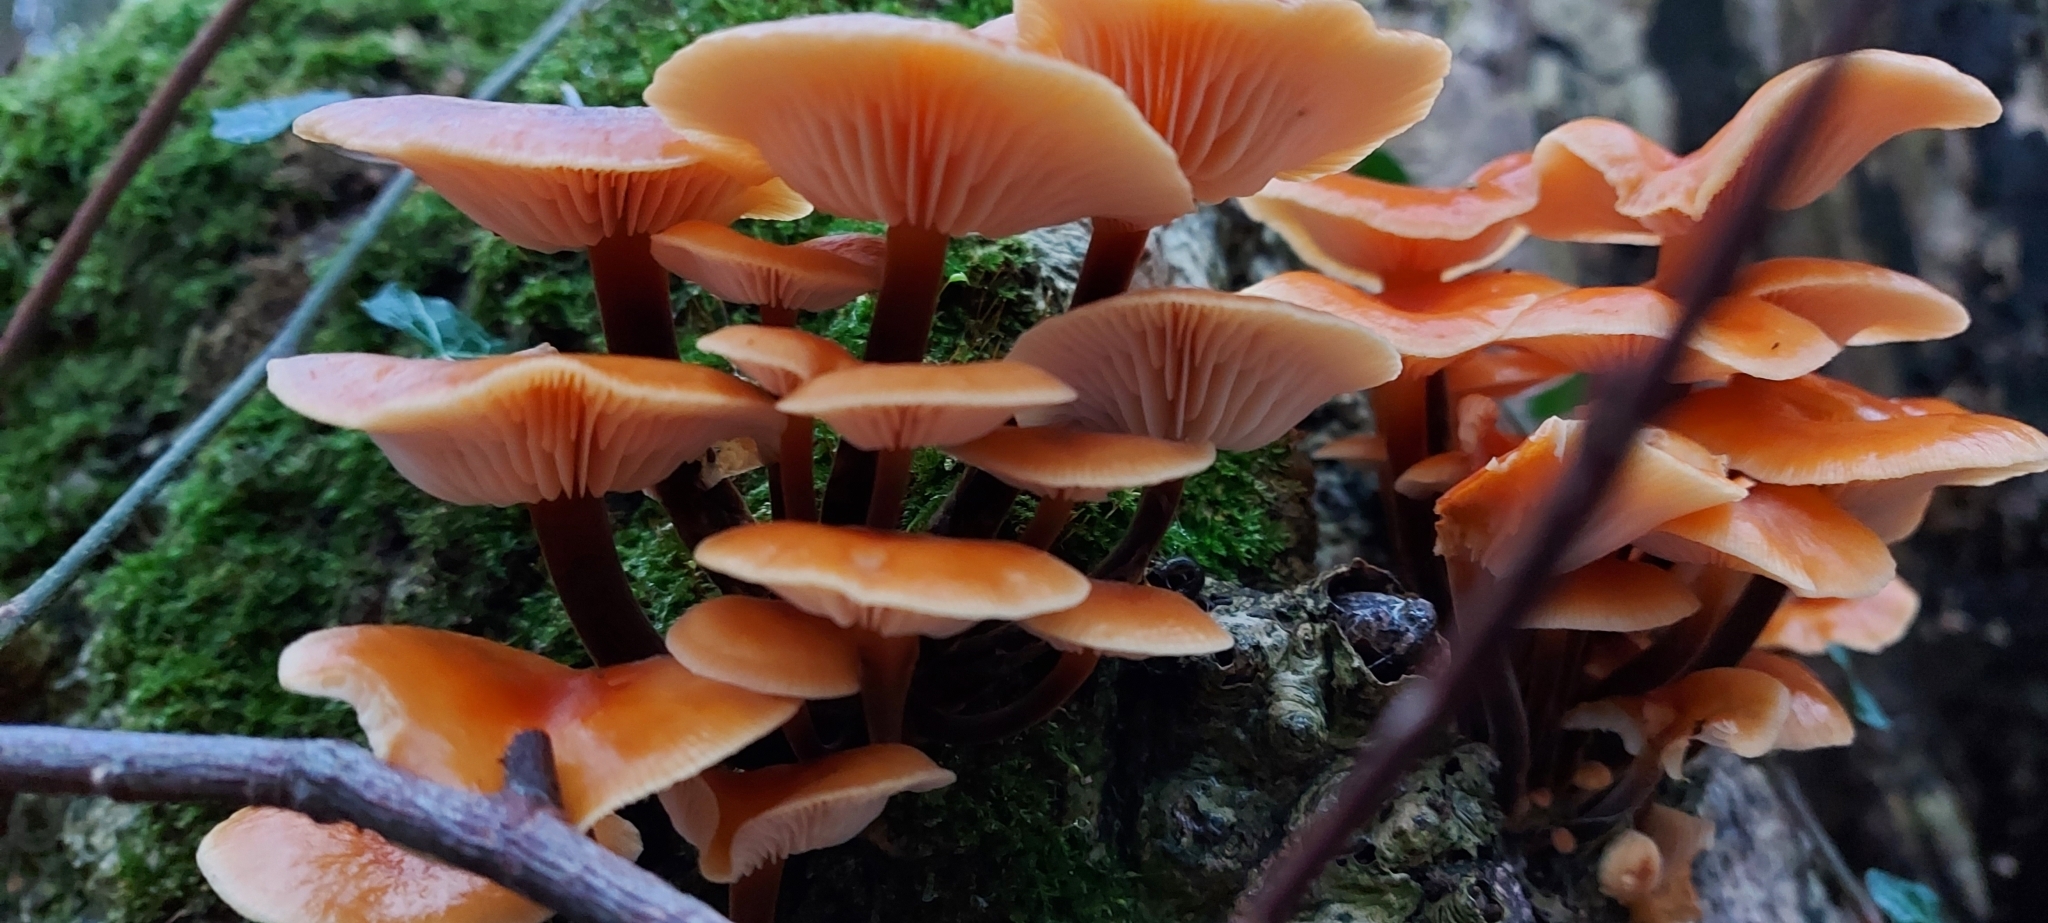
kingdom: Fungi
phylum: Basidiomycota
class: Agaricomycetes
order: Agaricales
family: Physalacriaceae
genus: Flammulina
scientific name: Flammulina
